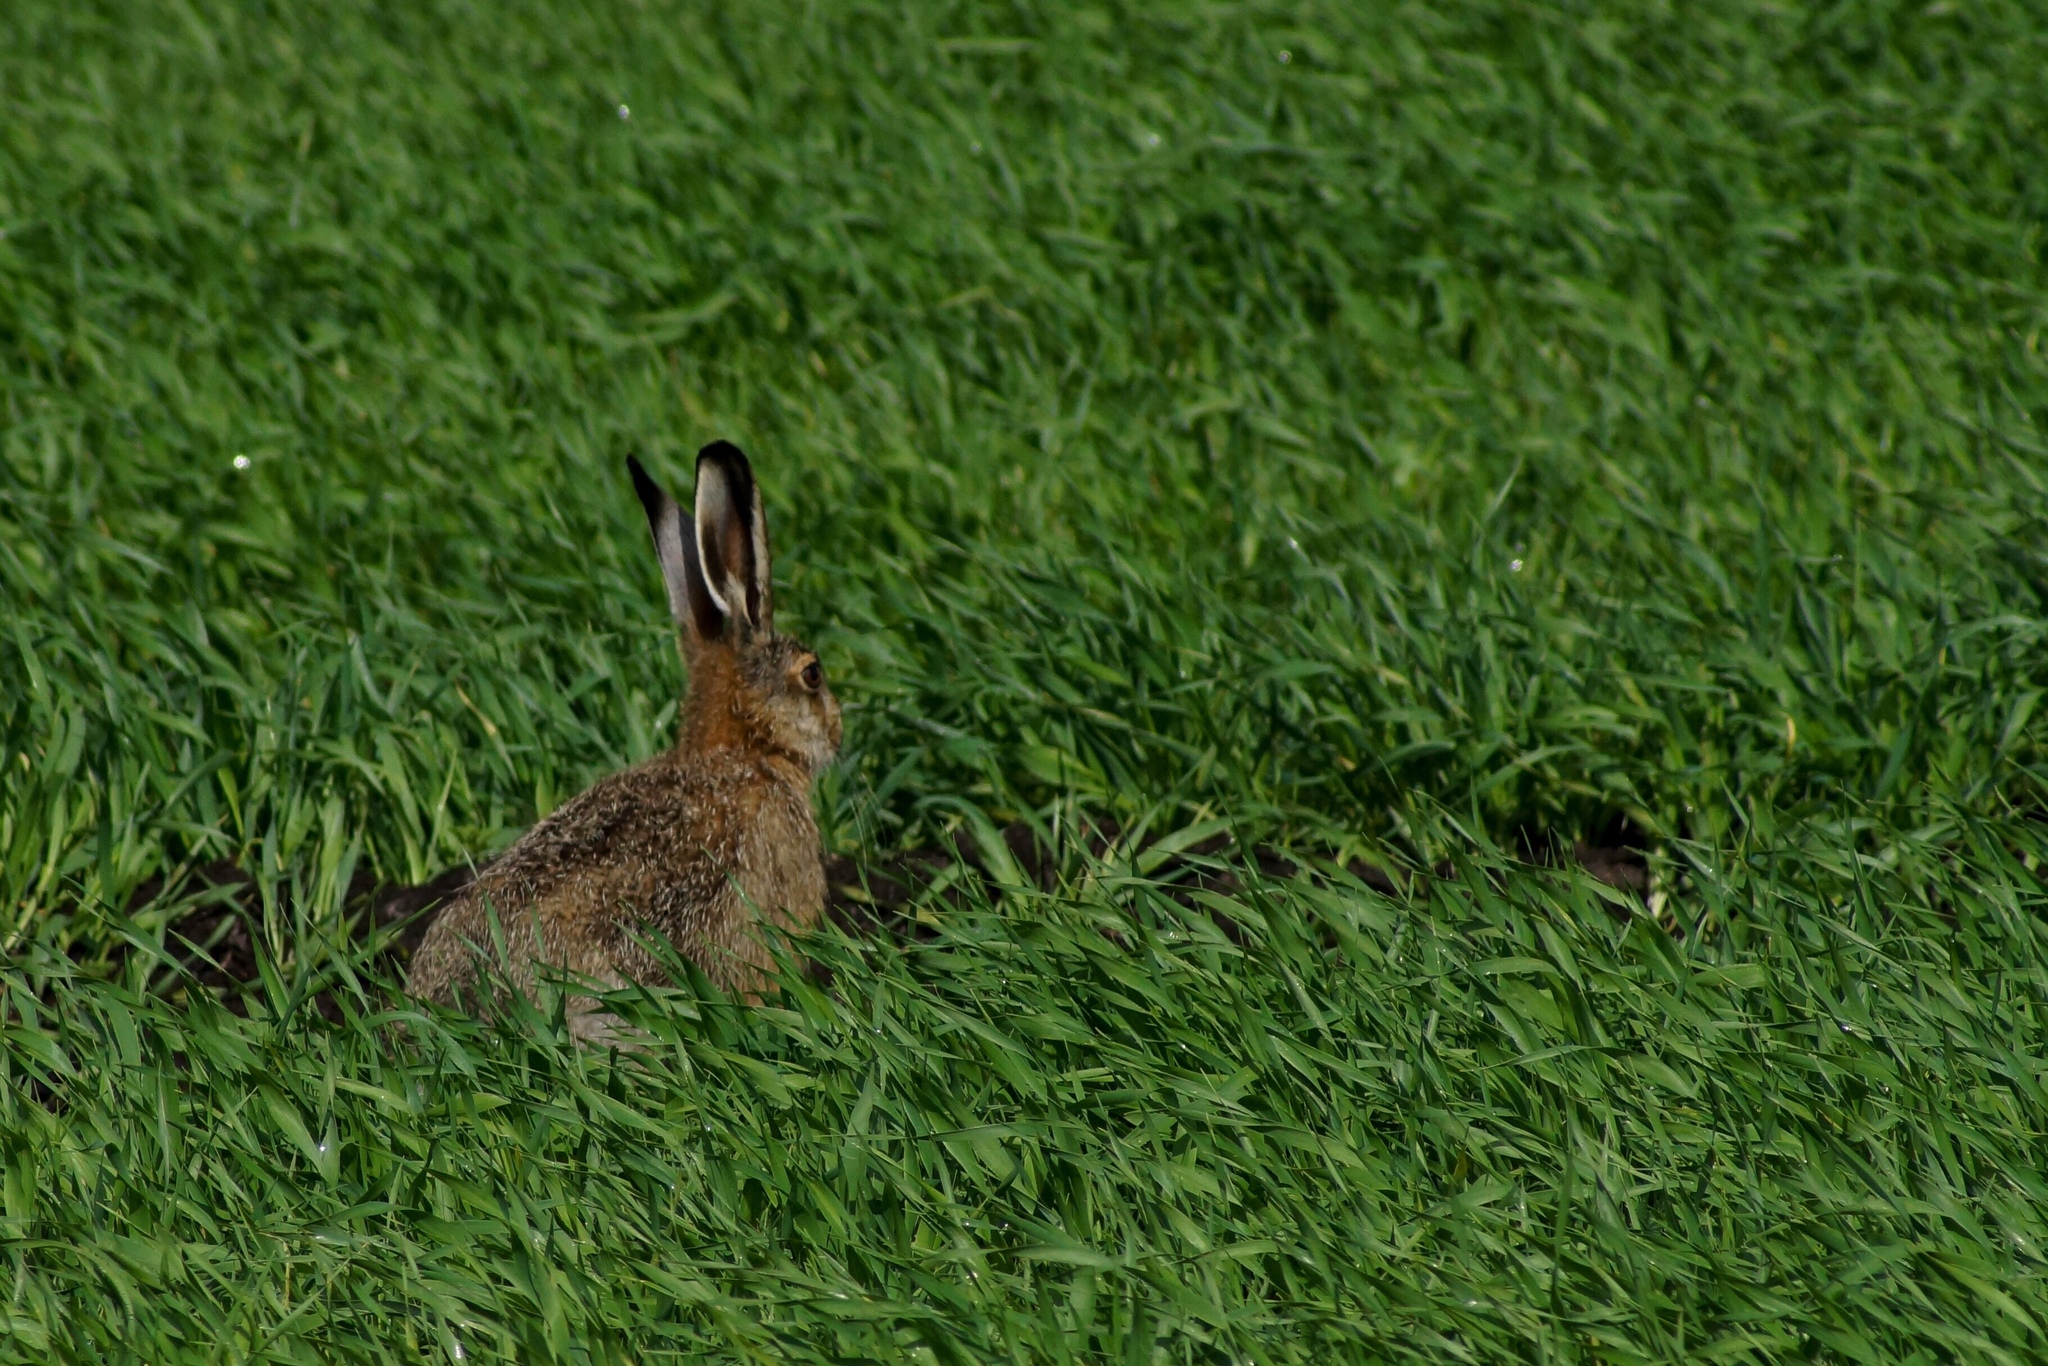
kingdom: Animalia
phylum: Chordata
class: Mammalia
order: Lagomorpha
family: Leporidae
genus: Lepus
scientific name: Lepus europaeus
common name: European hare
